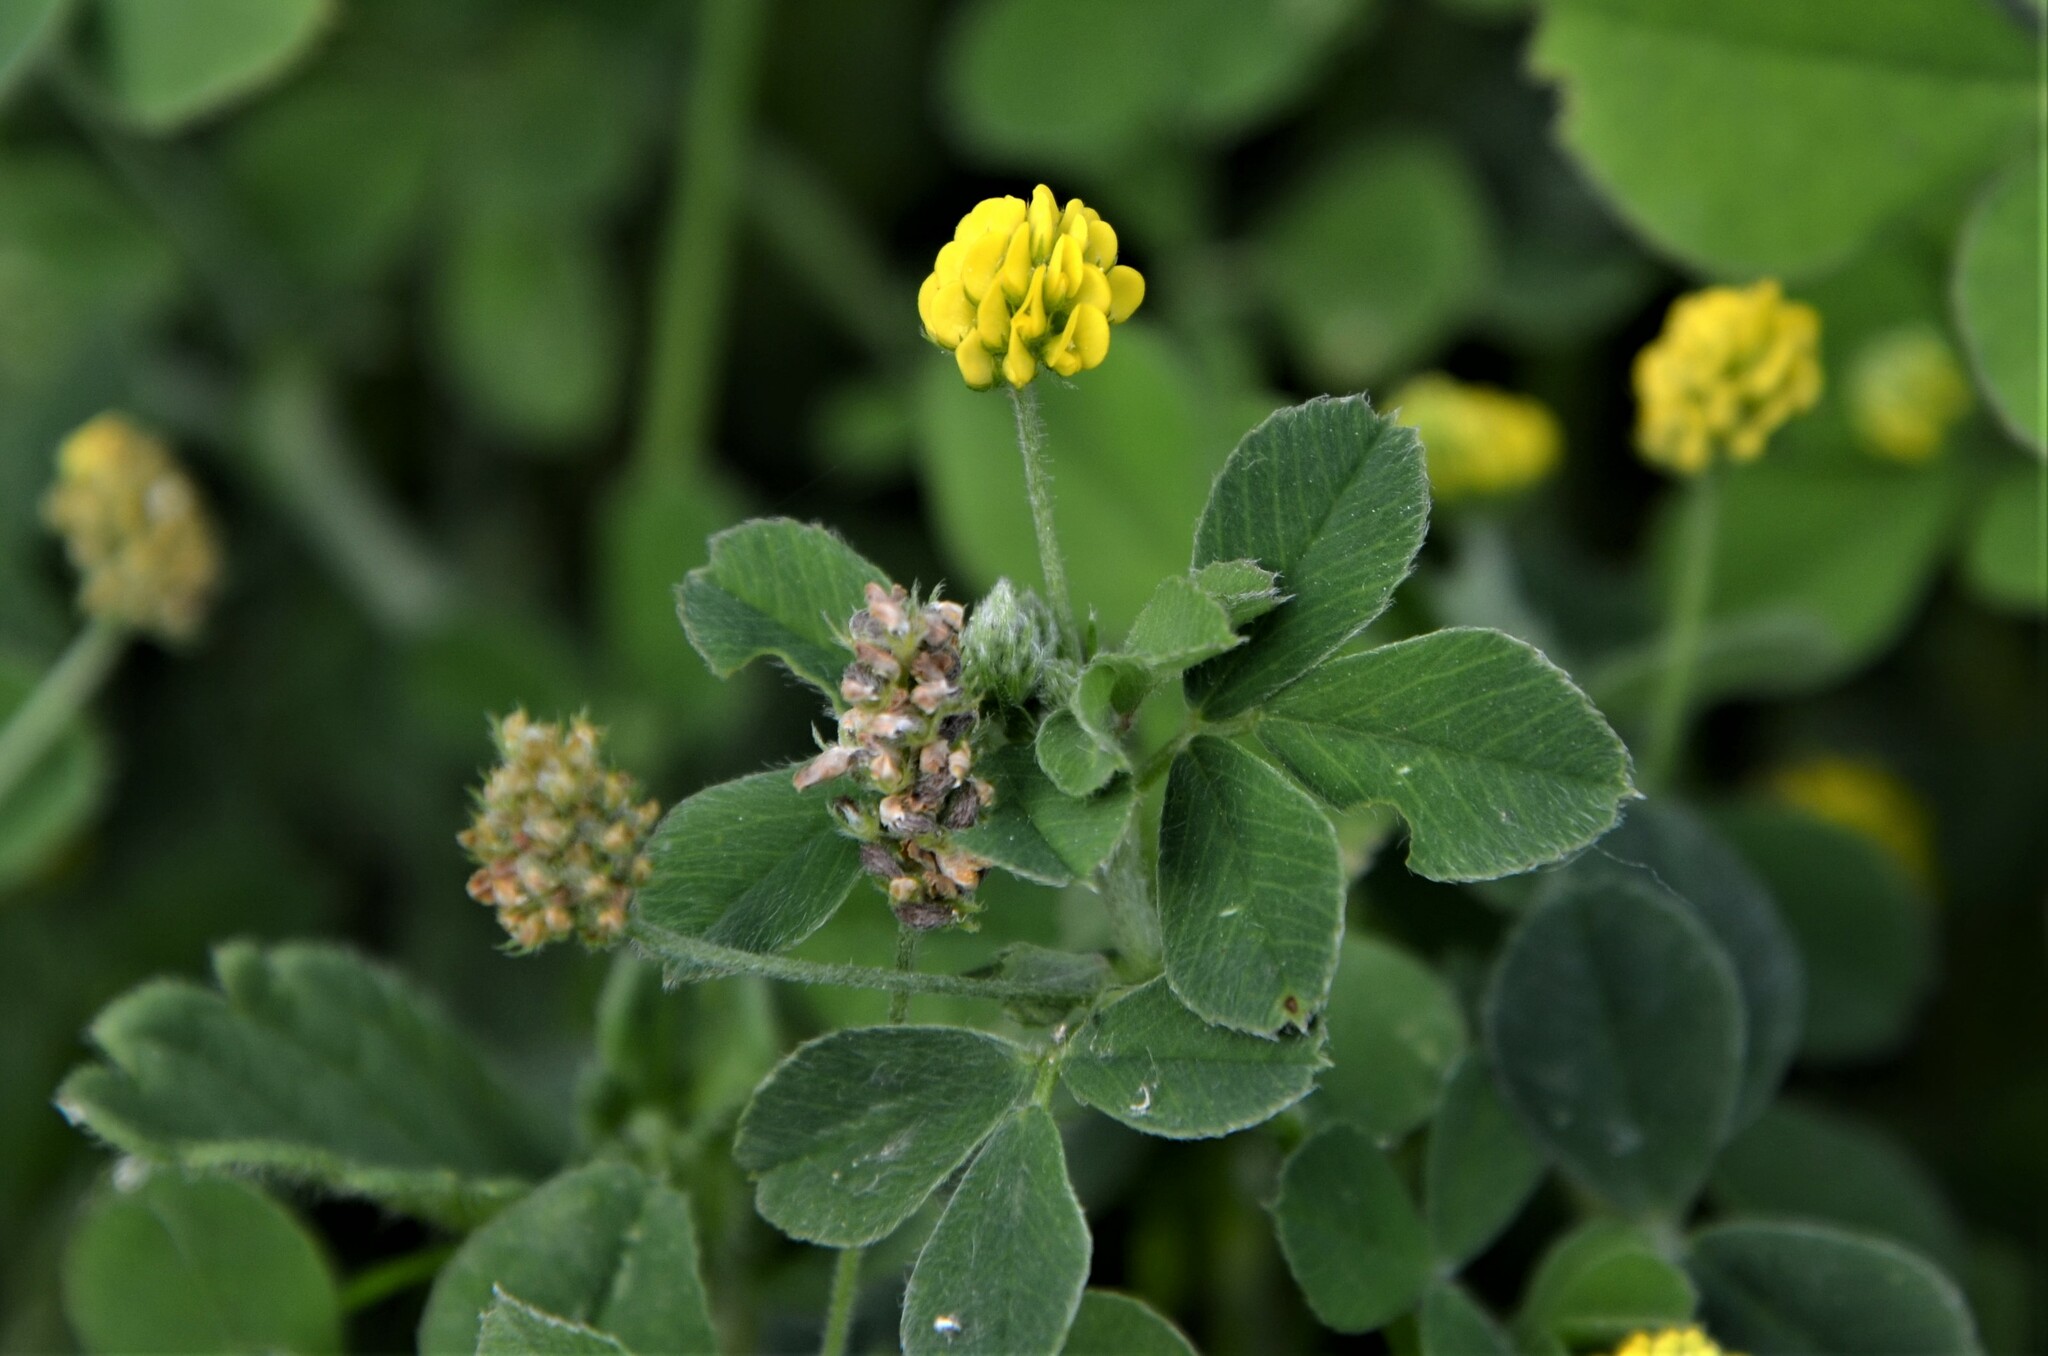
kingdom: Plantae
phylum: Tracheophyta
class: Magnoliopsida
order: Fabales
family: Fabaceae
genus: Medicago
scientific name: Medicago lupulina
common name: Black medick
